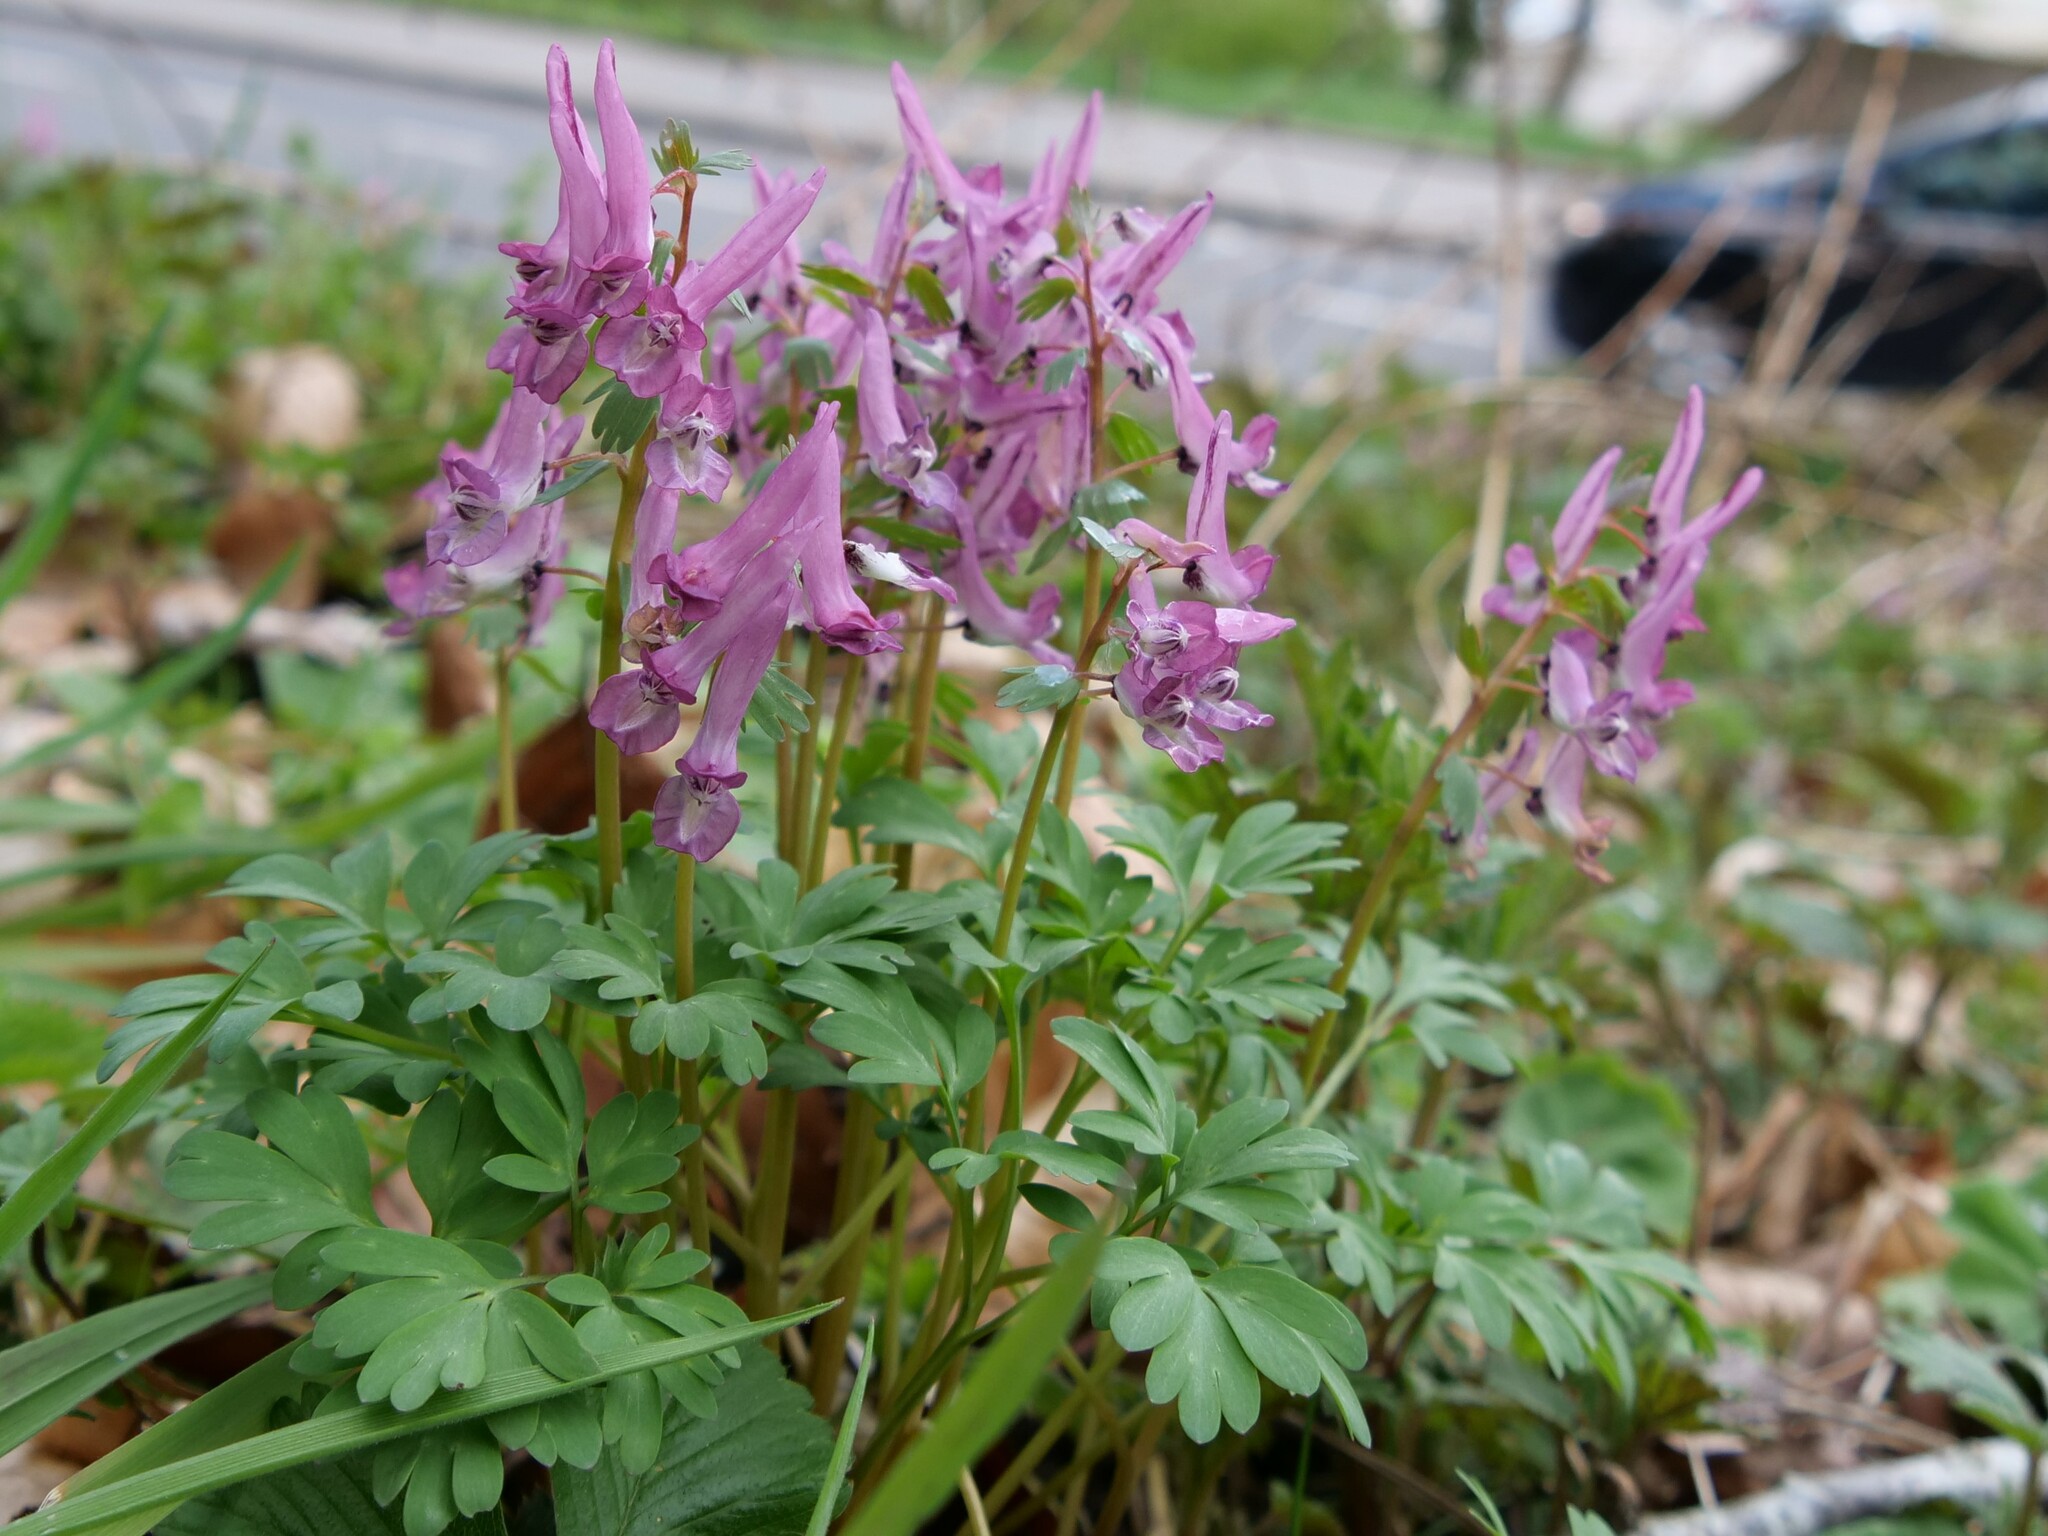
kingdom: Plantae
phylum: Tracheophyta
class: Magnoliopsida
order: Ranunculales
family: Papaveraceae
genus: Corydalis
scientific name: Corydalis solida
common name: Bird-in-a-bush
